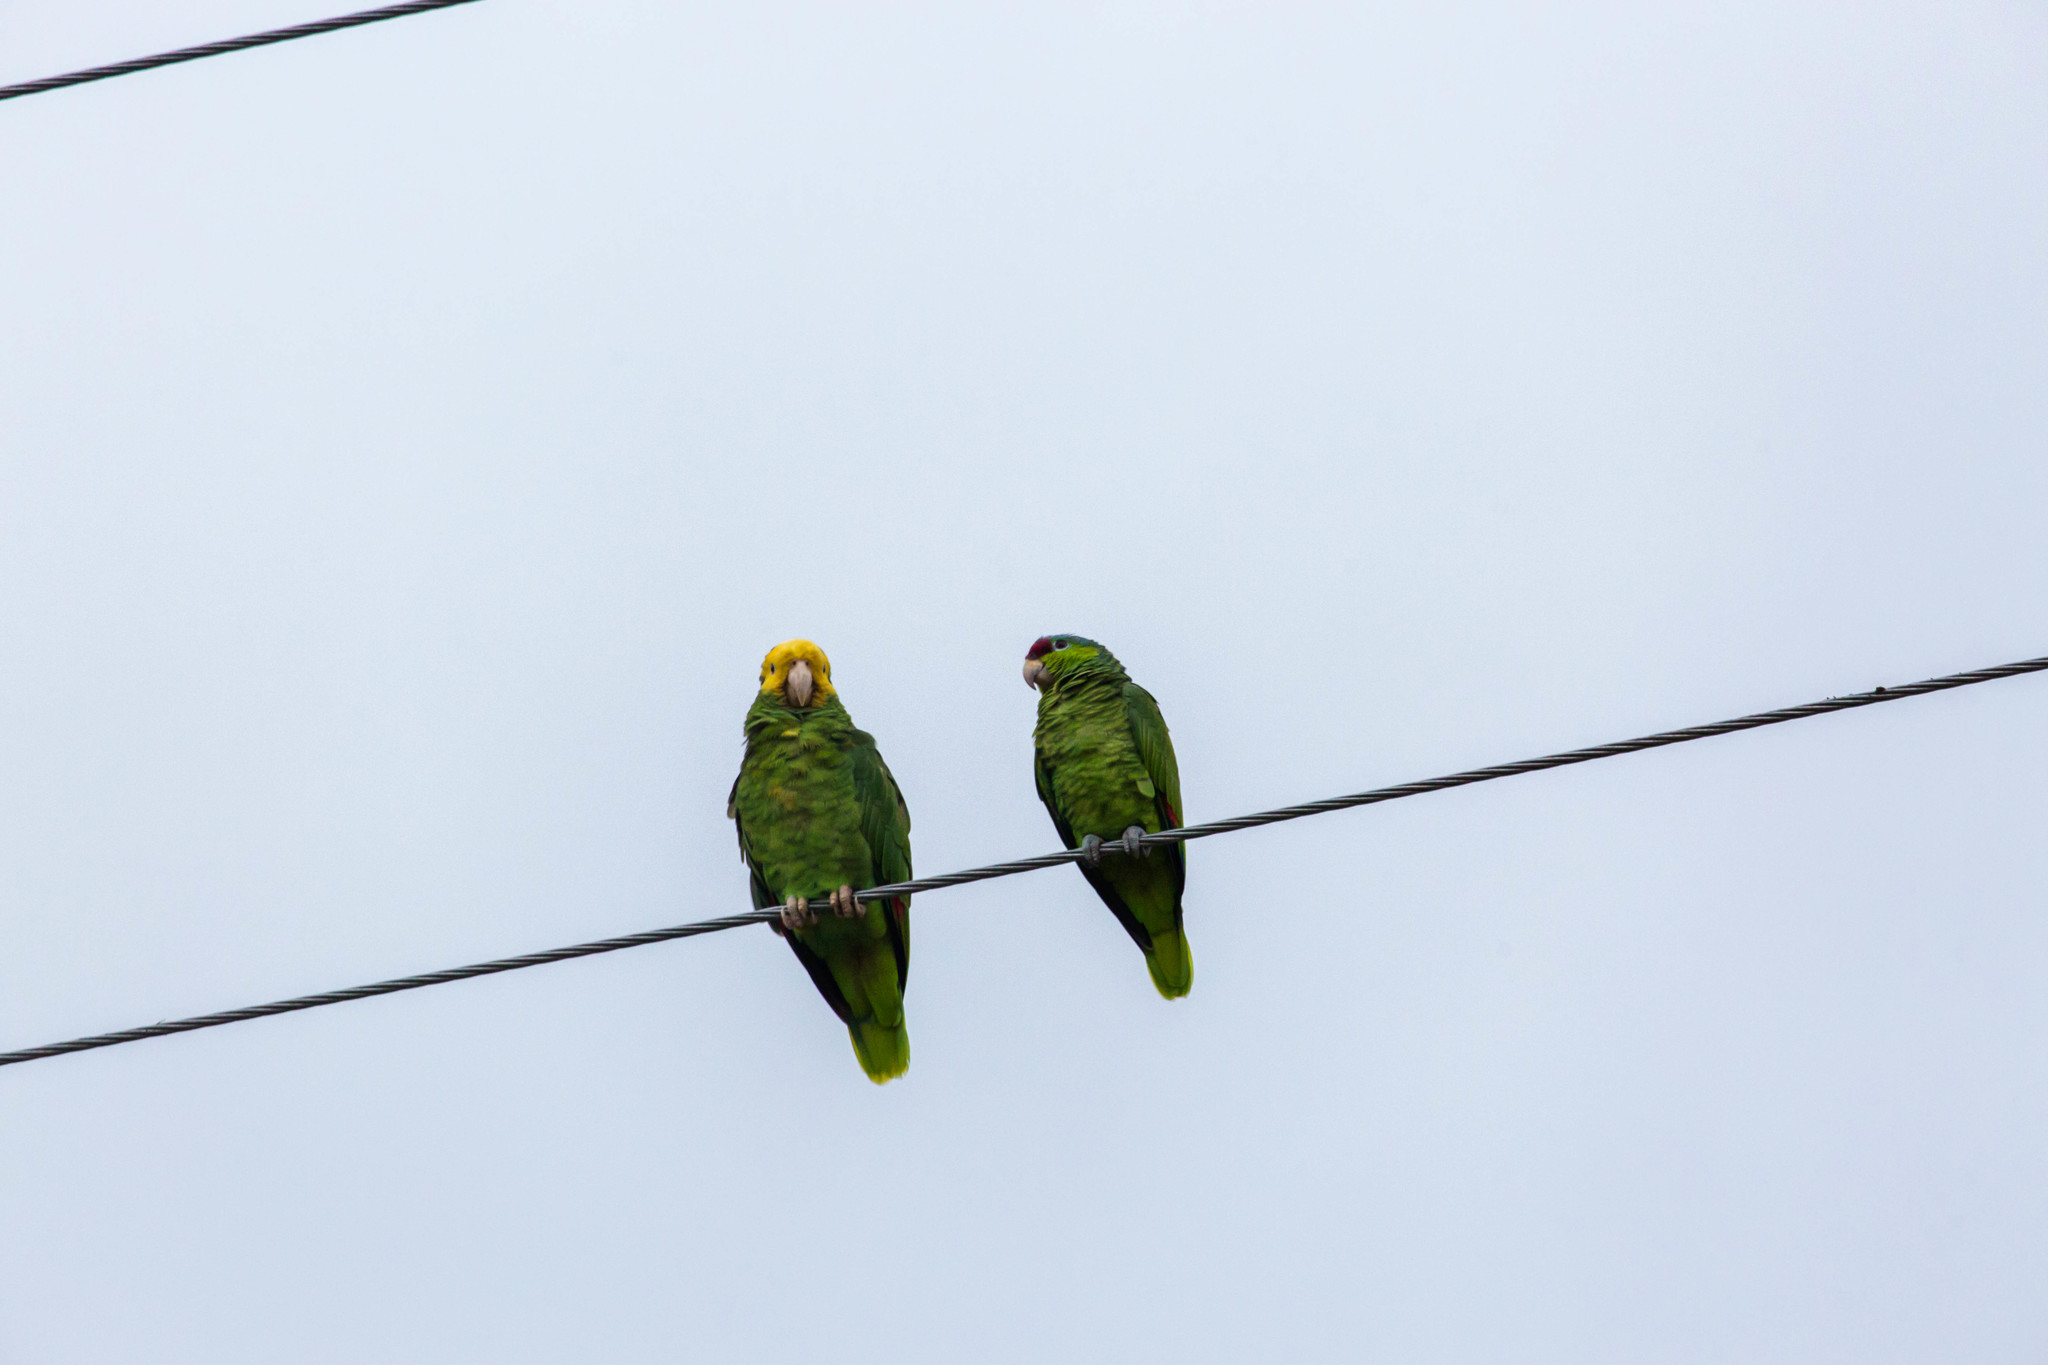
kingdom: Animalia
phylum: Chordata
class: Aves
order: Psittaciformes
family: Psittacidae
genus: Amazona
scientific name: Amazona oratrix
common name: Yellow-headed amazon
